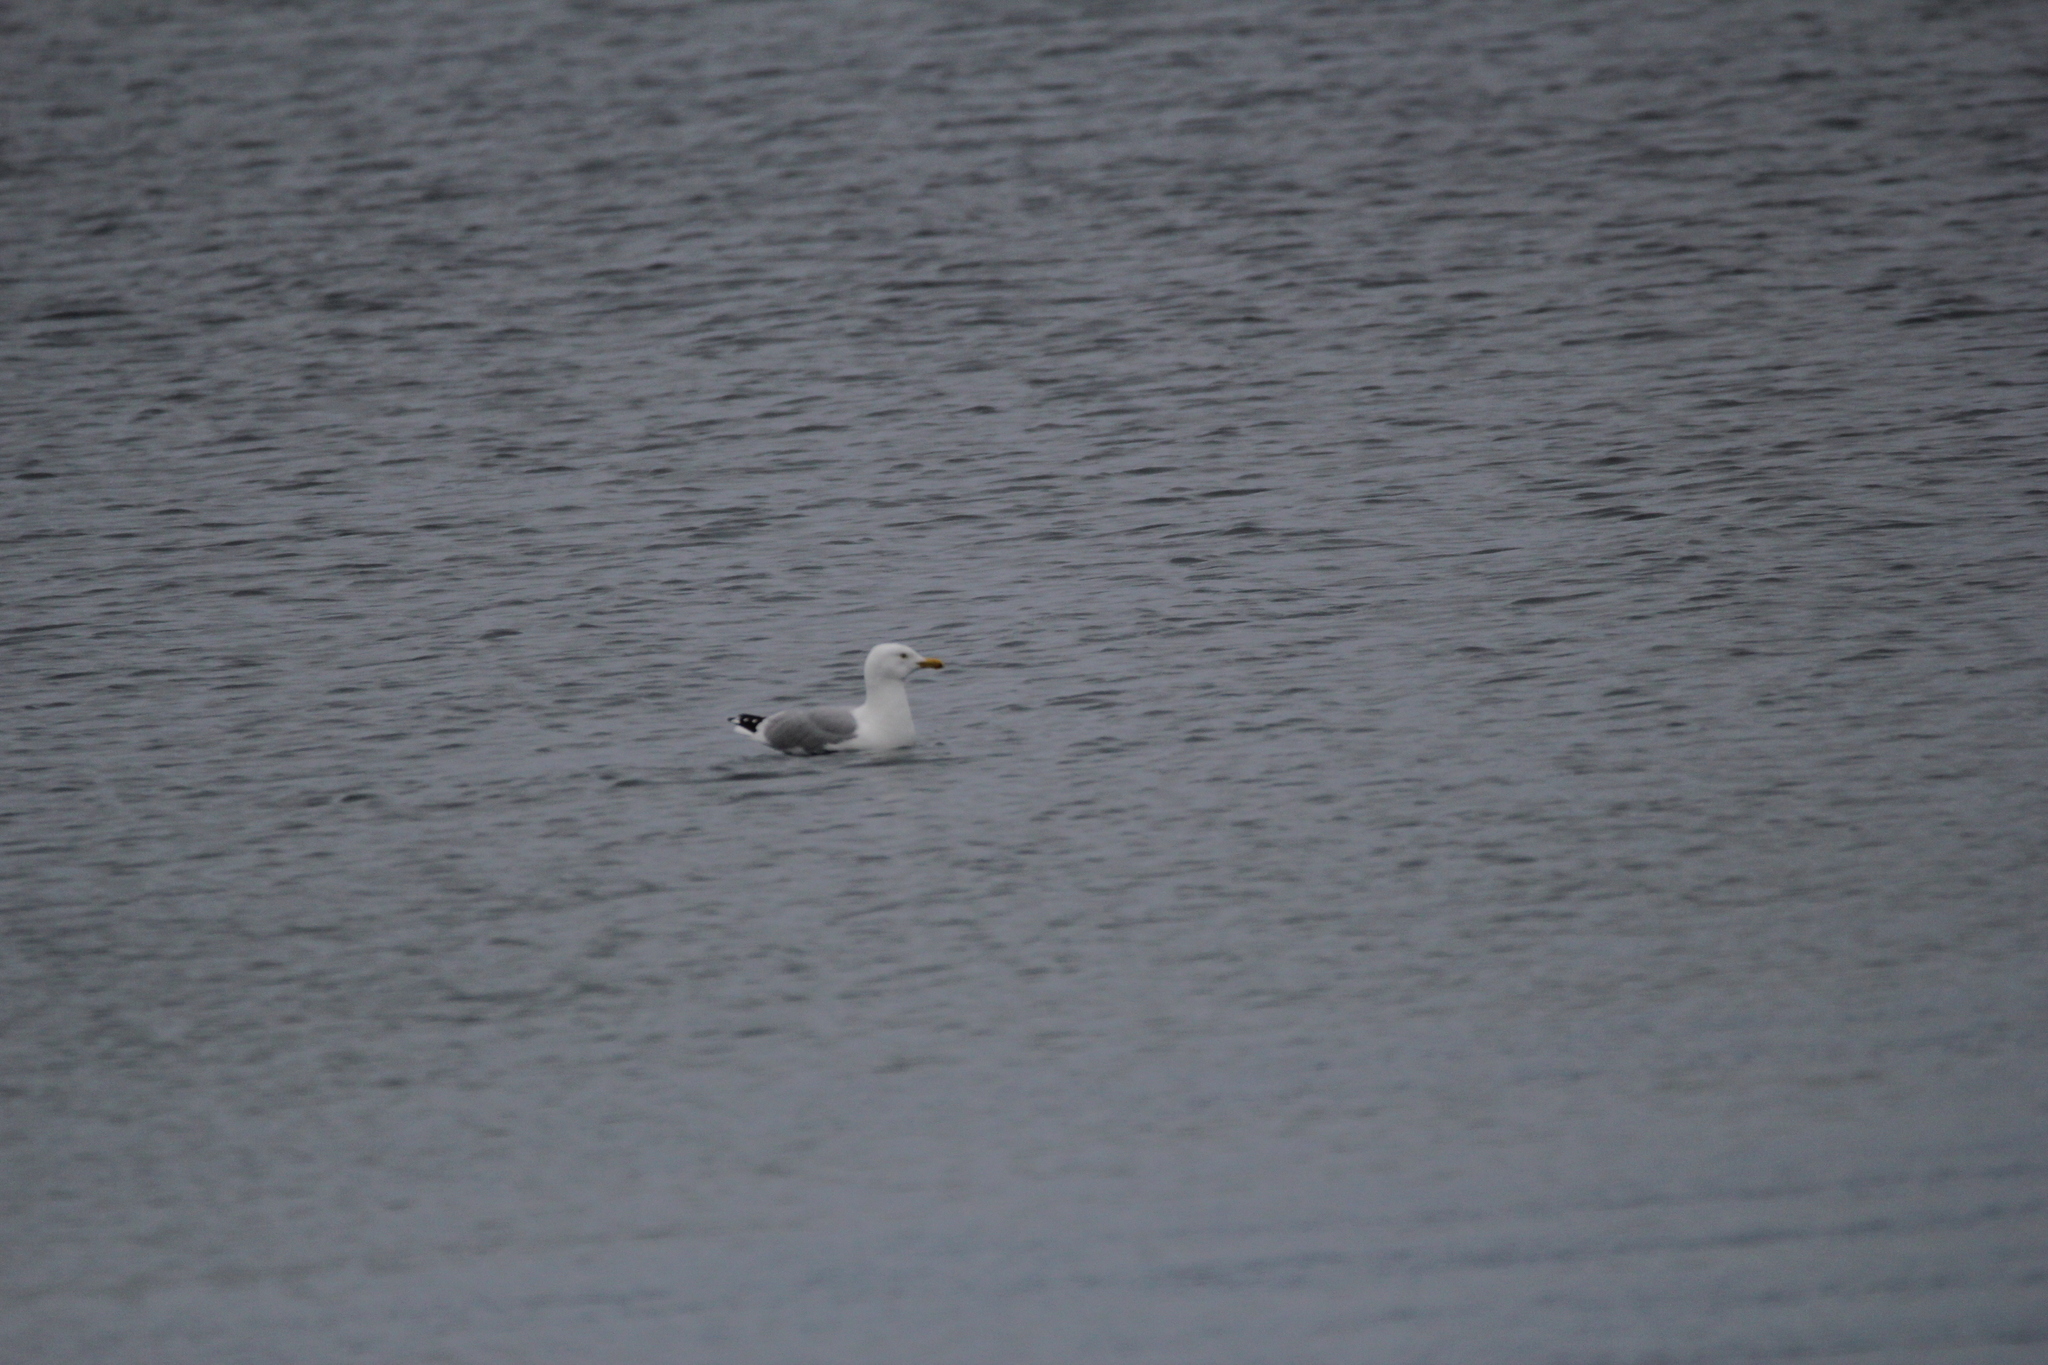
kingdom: Animalia
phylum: Chordata
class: Aves
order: Charadriiformes
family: Laridae
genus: Larus
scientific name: Larus argentatus
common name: Herring gull
